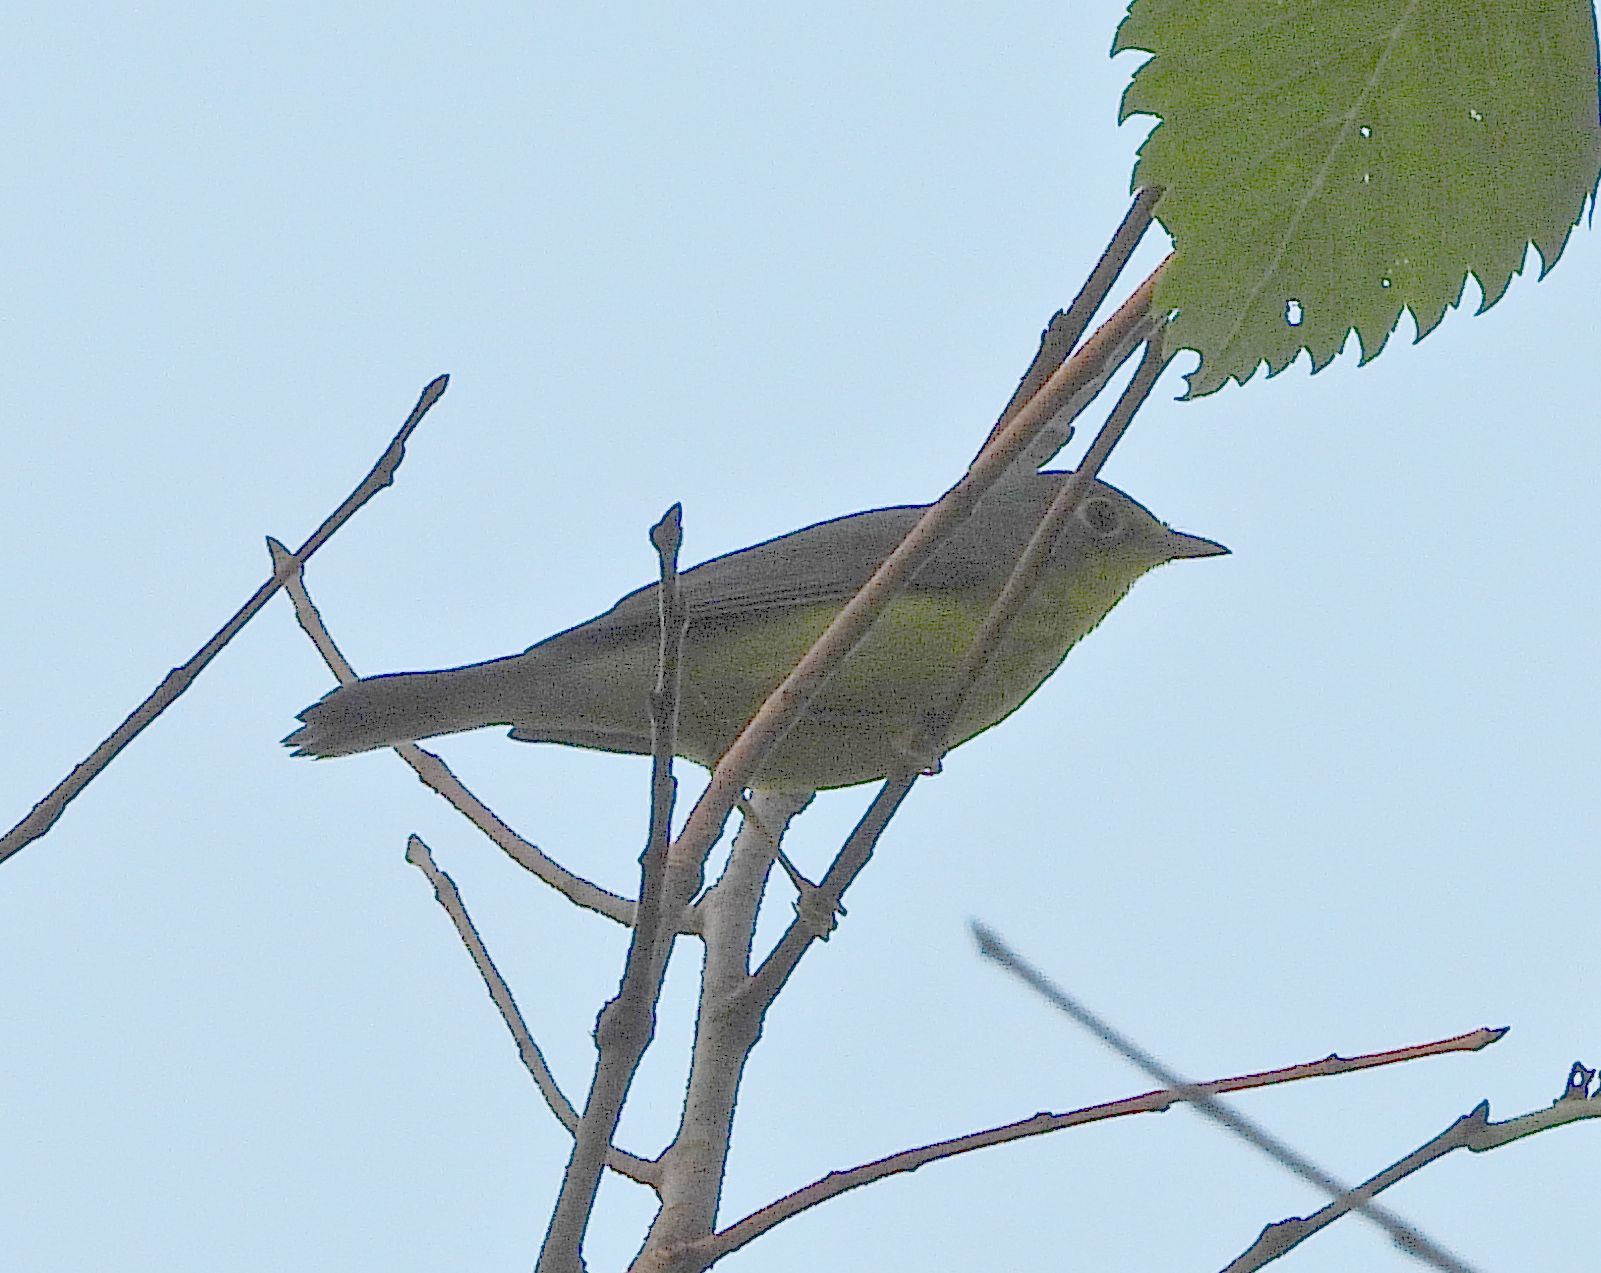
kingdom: Animalia
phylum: Chordata
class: Aves
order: Passeriformes
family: Parulidae
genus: Cardellina
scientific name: Cardellina canadensis
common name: Canada warbler
